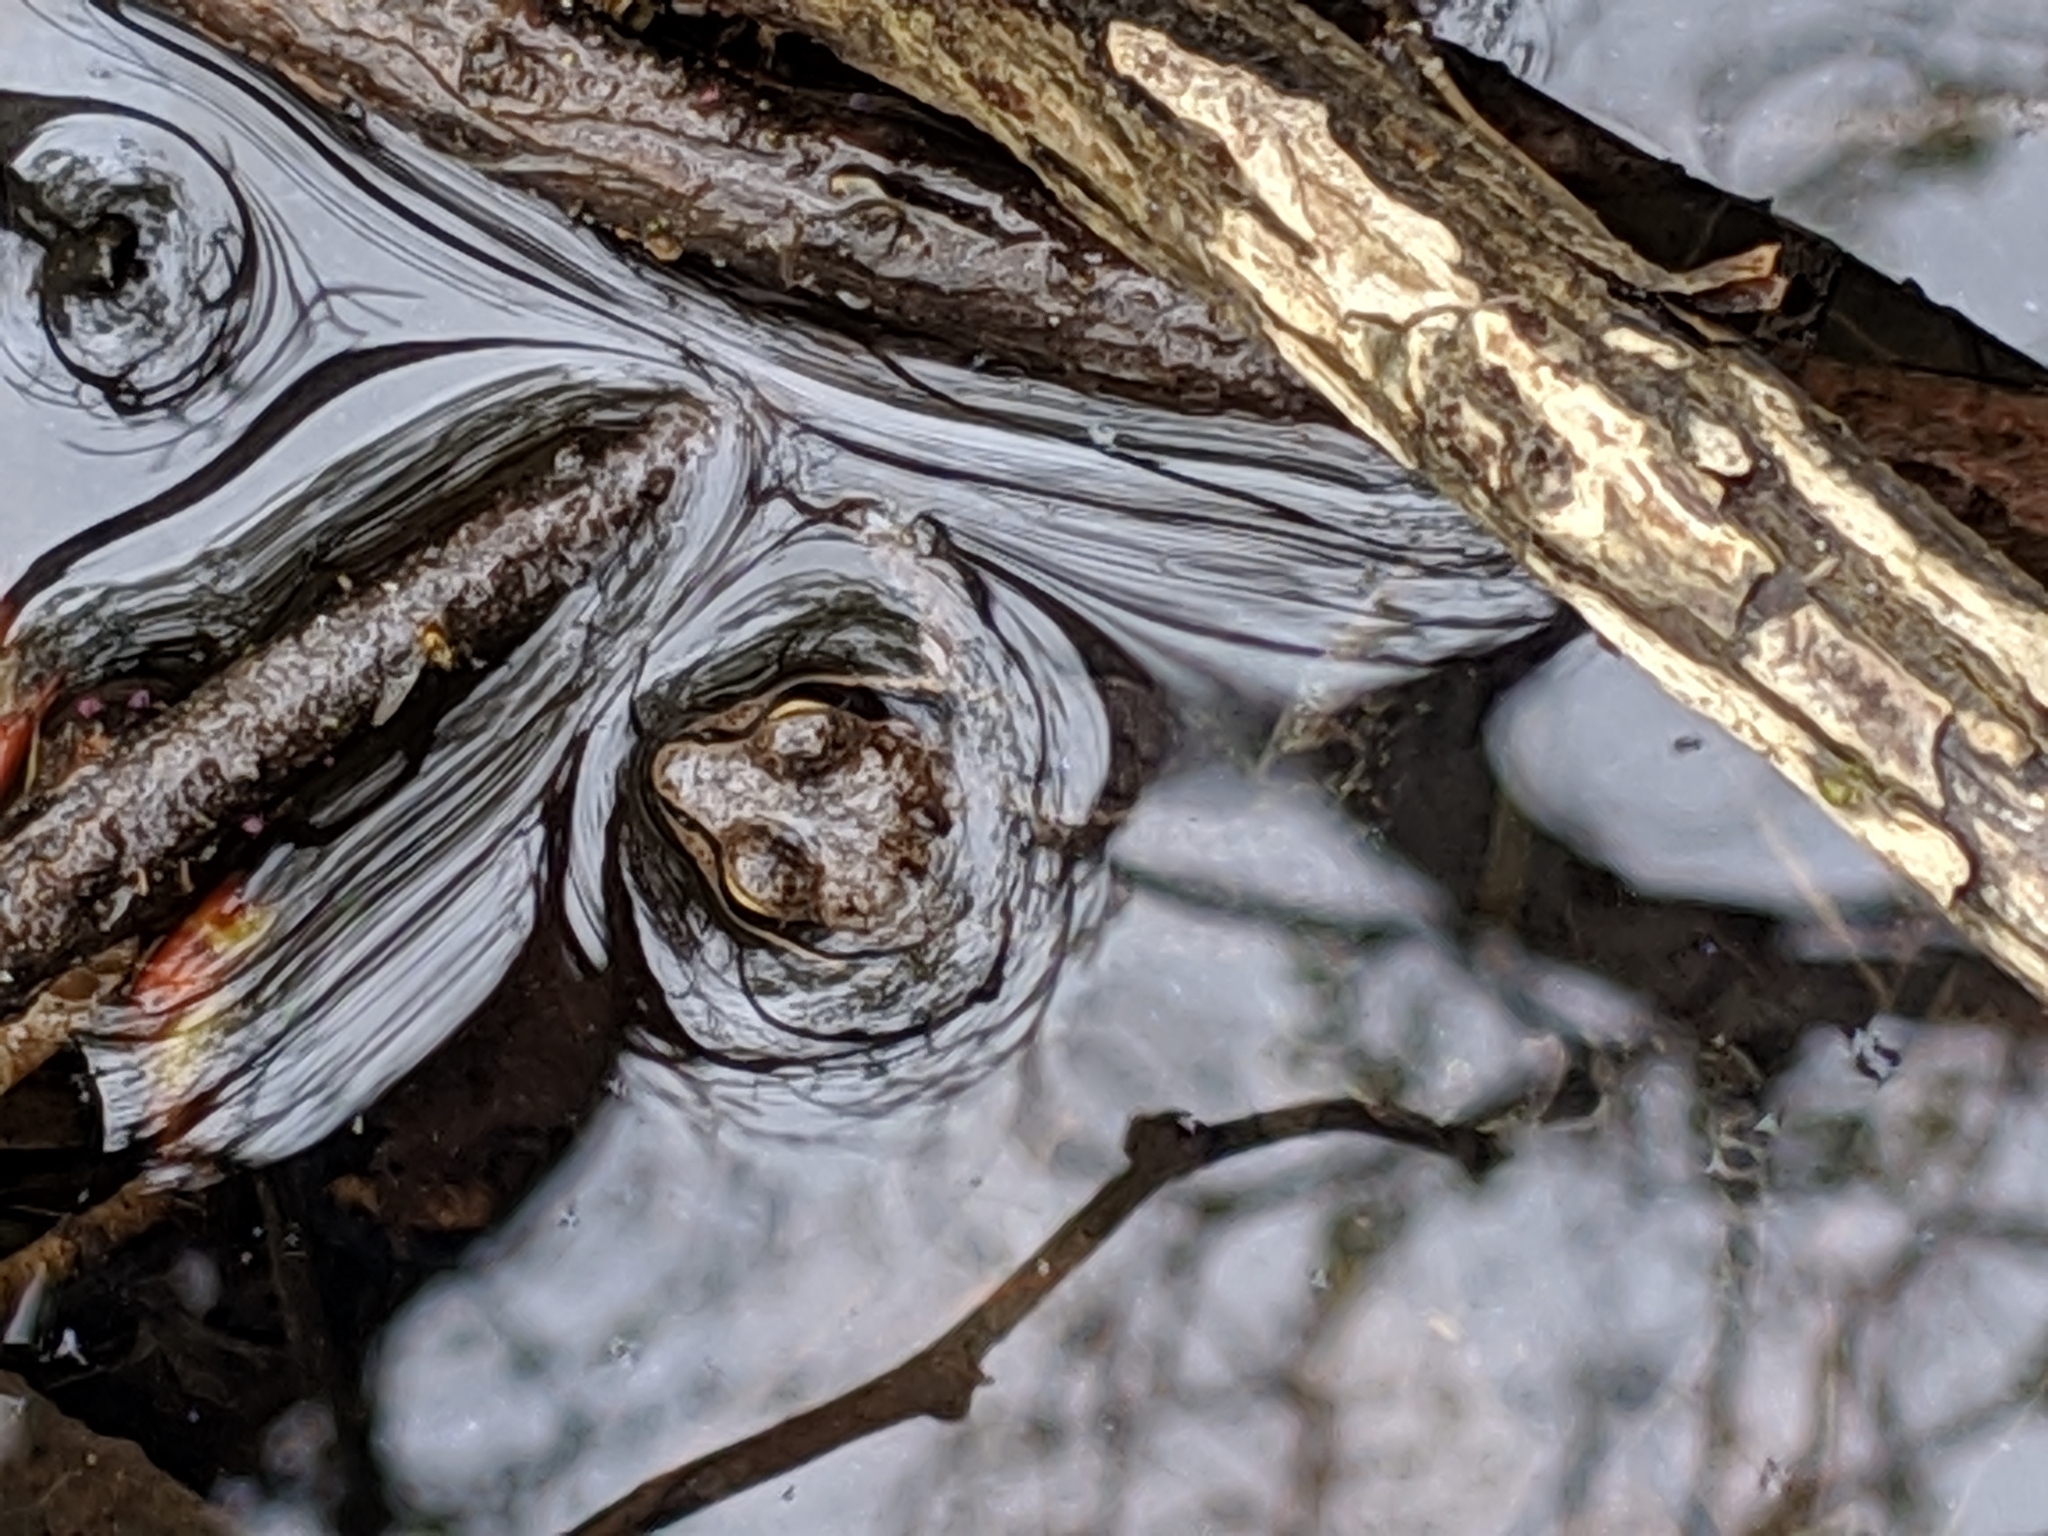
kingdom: Animalia
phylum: Chordata
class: Amphibia
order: Anura
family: Ranidae
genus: Lithobates
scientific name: Lithobates sylvaticus
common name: Wood frog
